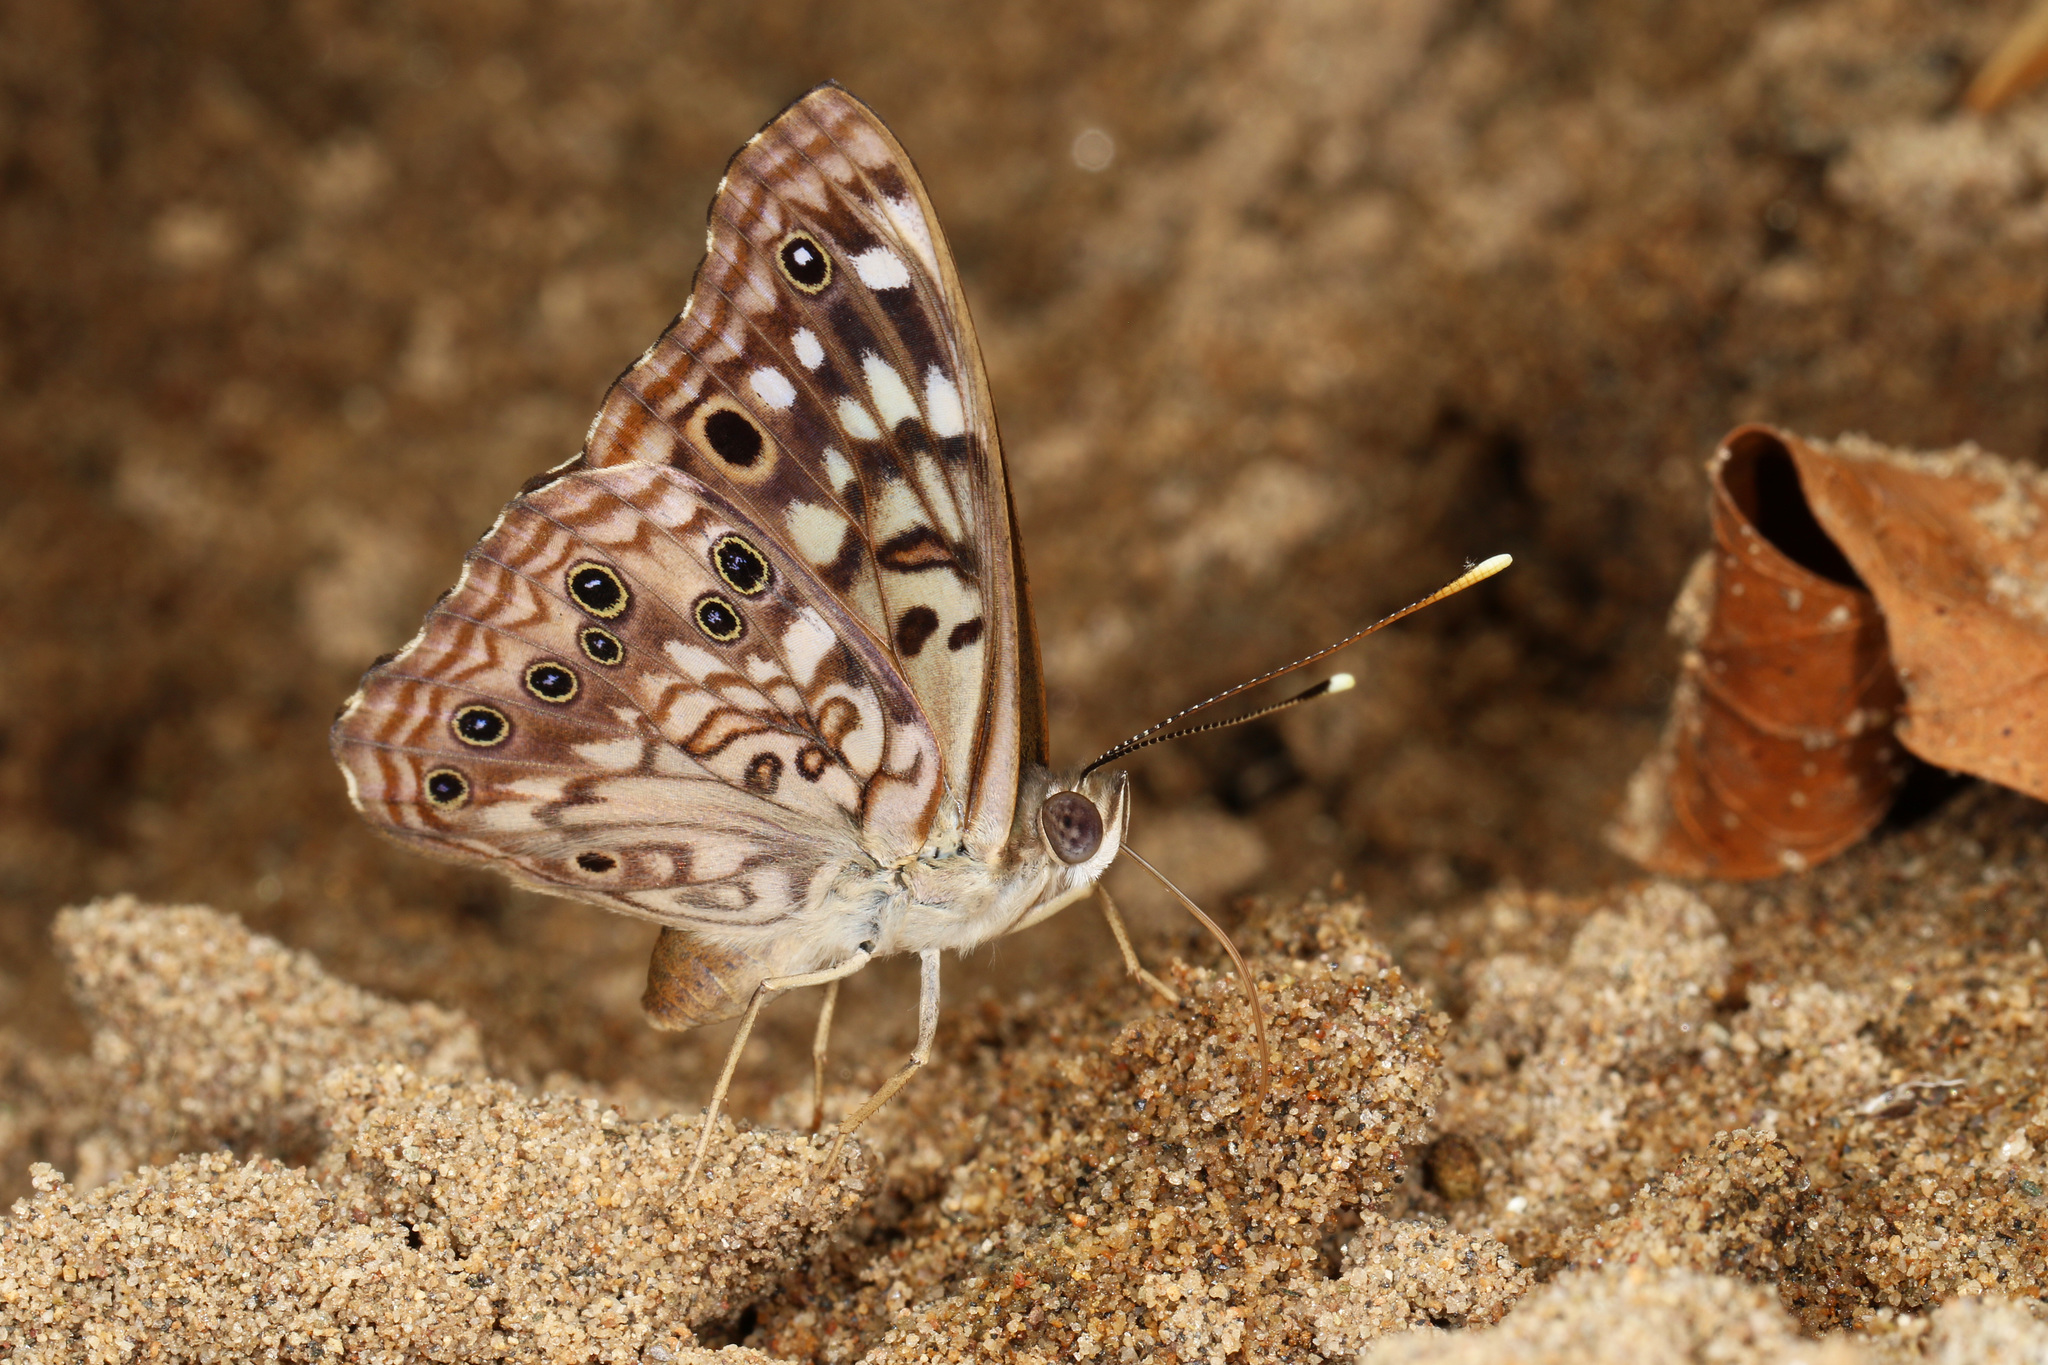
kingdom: Animalia
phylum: Arthropoda
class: Insecta
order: Lepidoptera
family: Nymphalidae
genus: Asterocampa
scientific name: Asterocampa celtis
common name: Hackberry emperor
